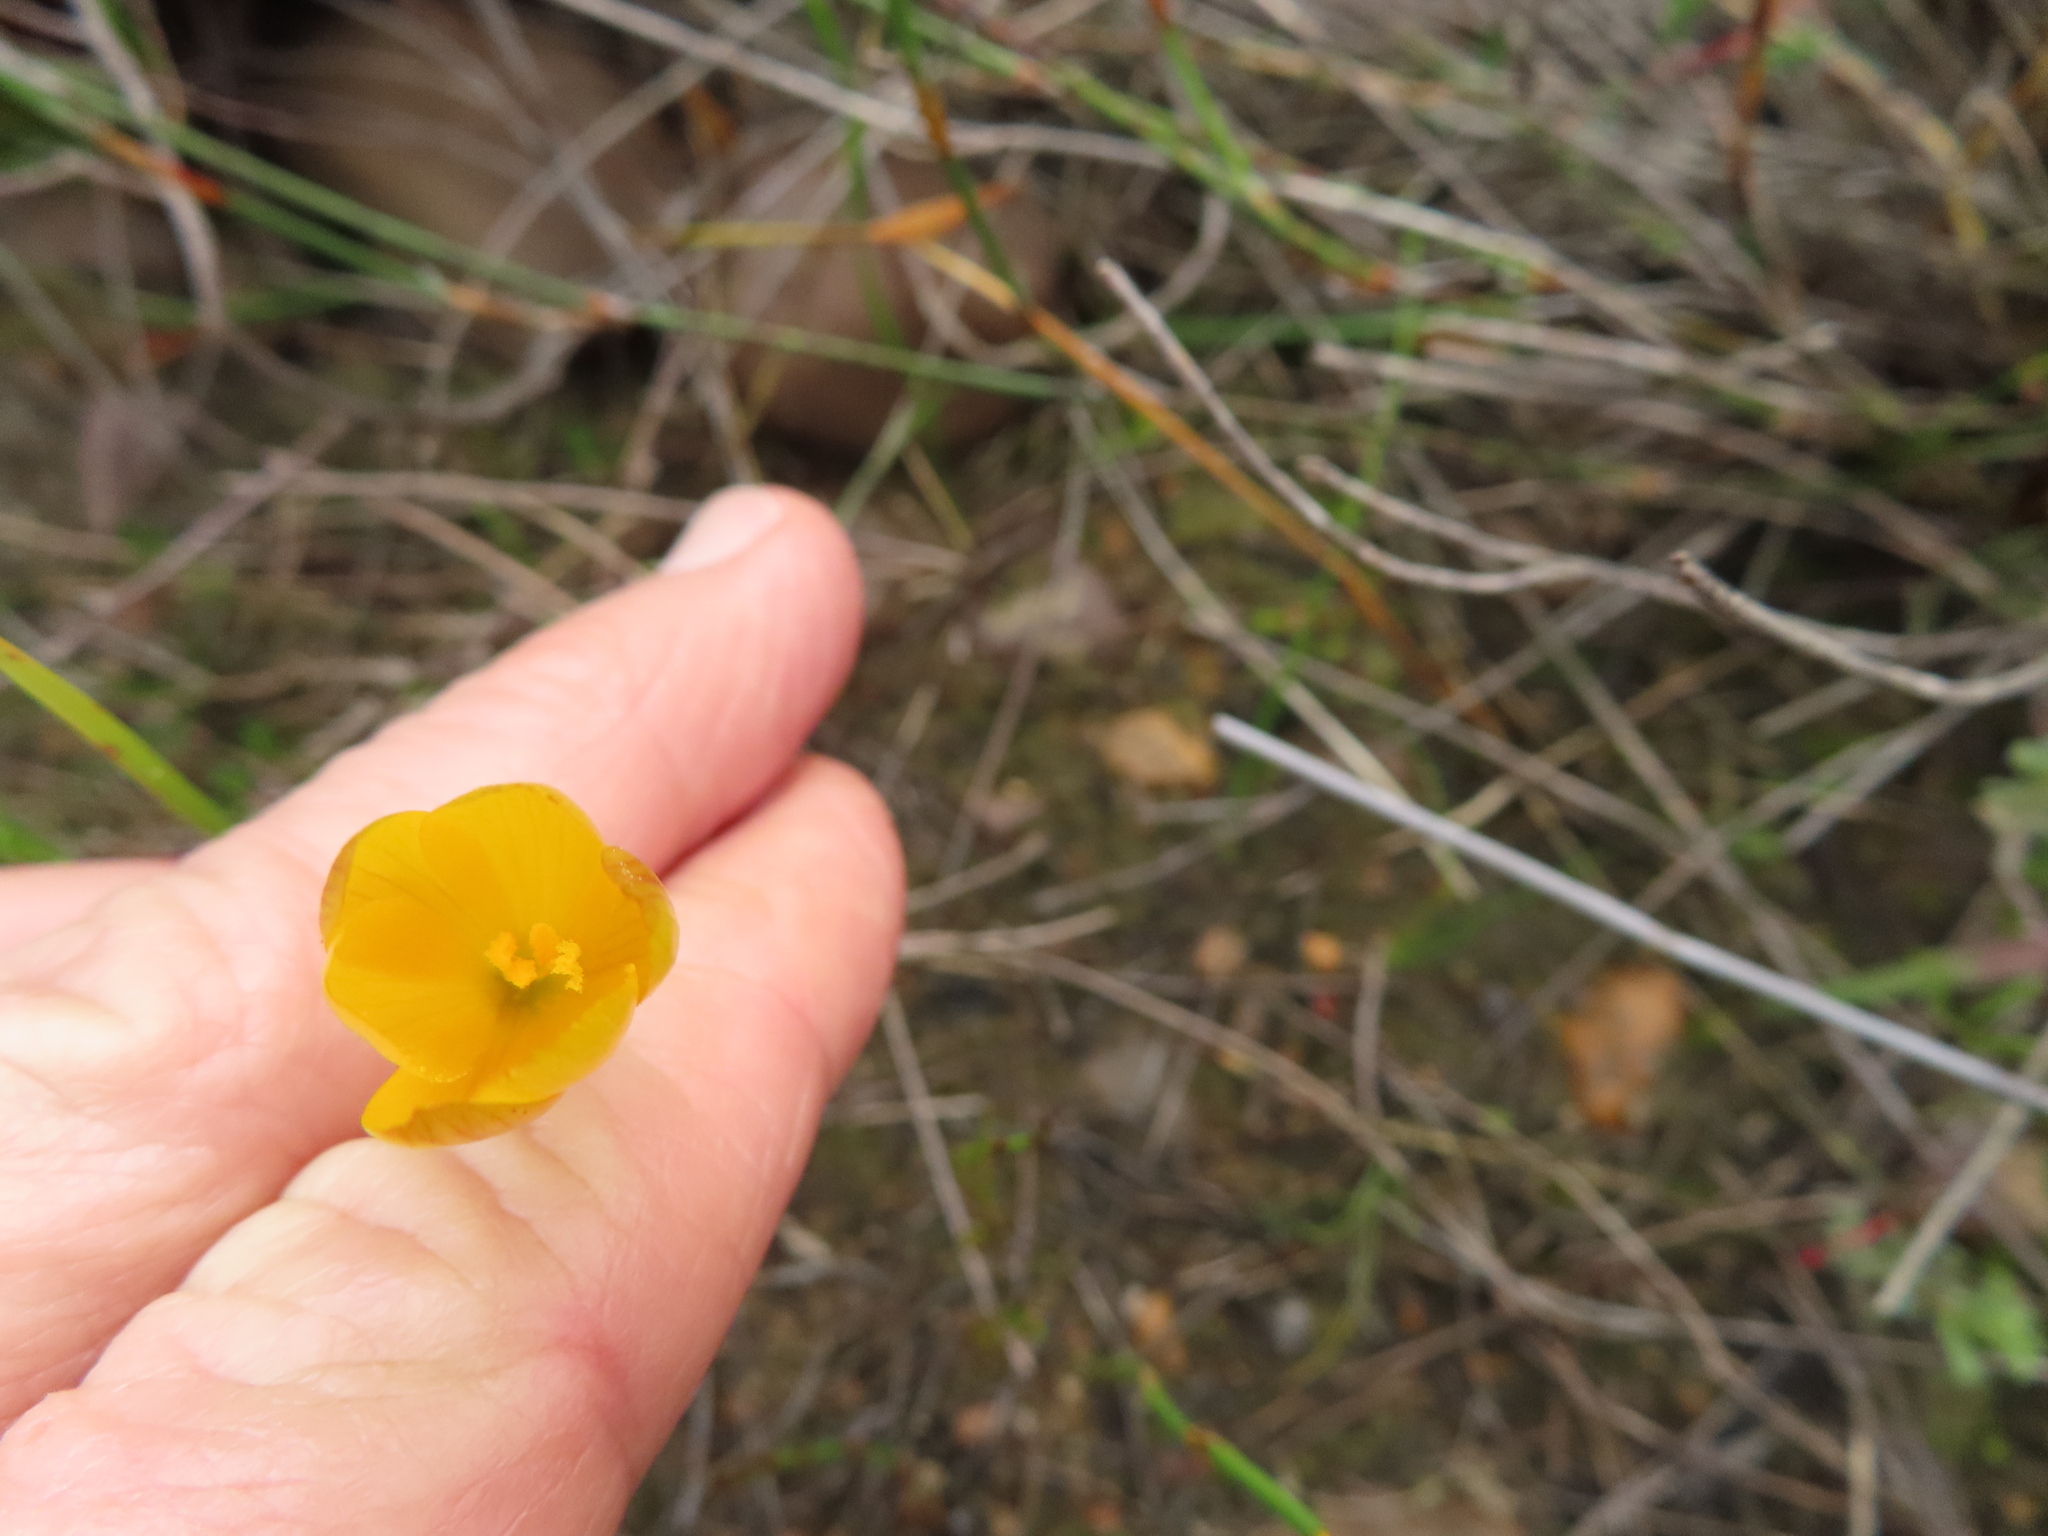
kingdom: Plantae
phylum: Tracheophyta
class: Liliopsida
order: Asparagales
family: Iridaceae
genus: Geissorhiza
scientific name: Geissorhiza furva
